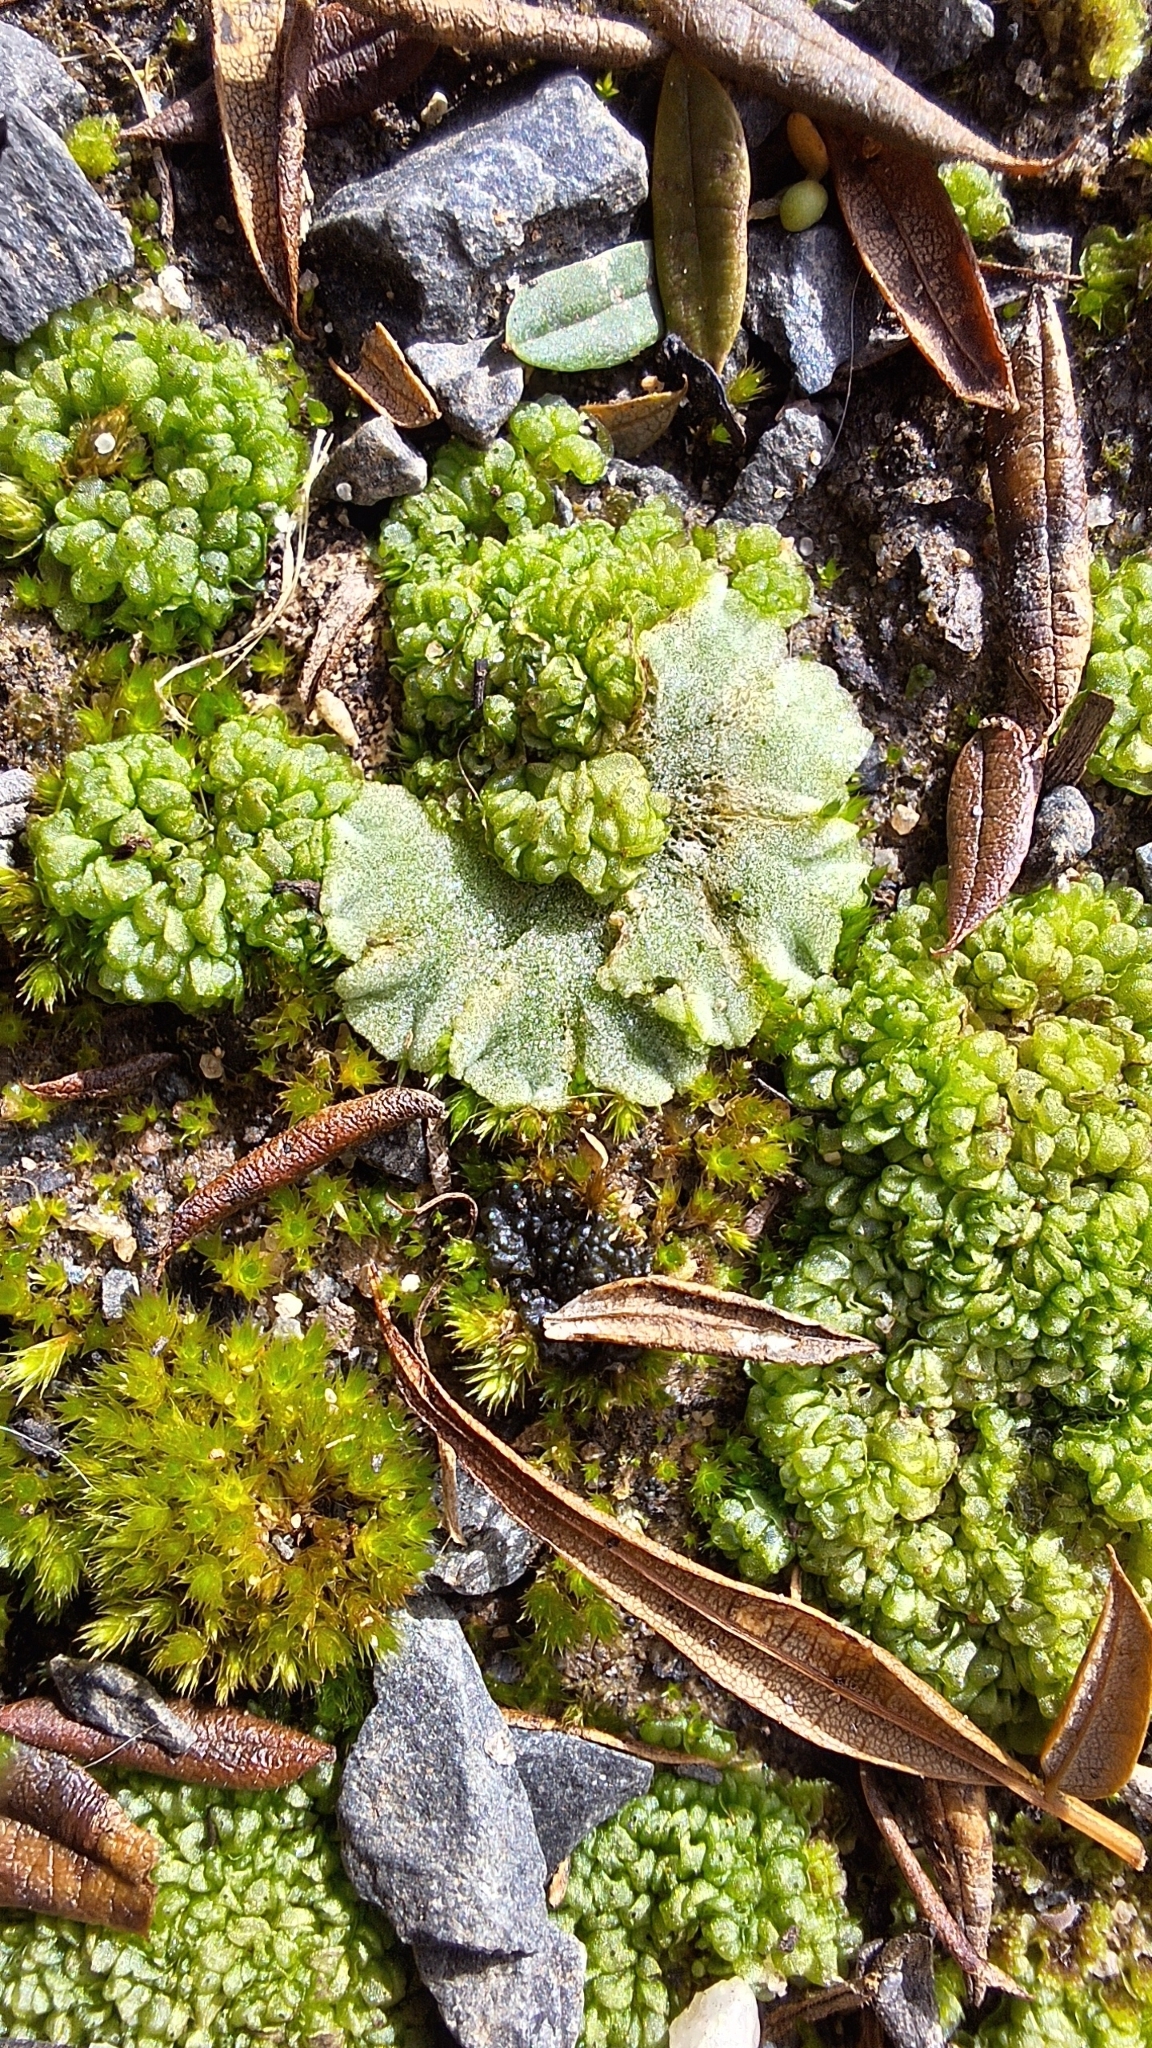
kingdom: Plantae
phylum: Marchantiophyta
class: Marchantiopsida
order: Marchantiales
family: Ricciaceae
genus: Riccia
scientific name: Riccia crystallina
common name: Blue crystalwort
